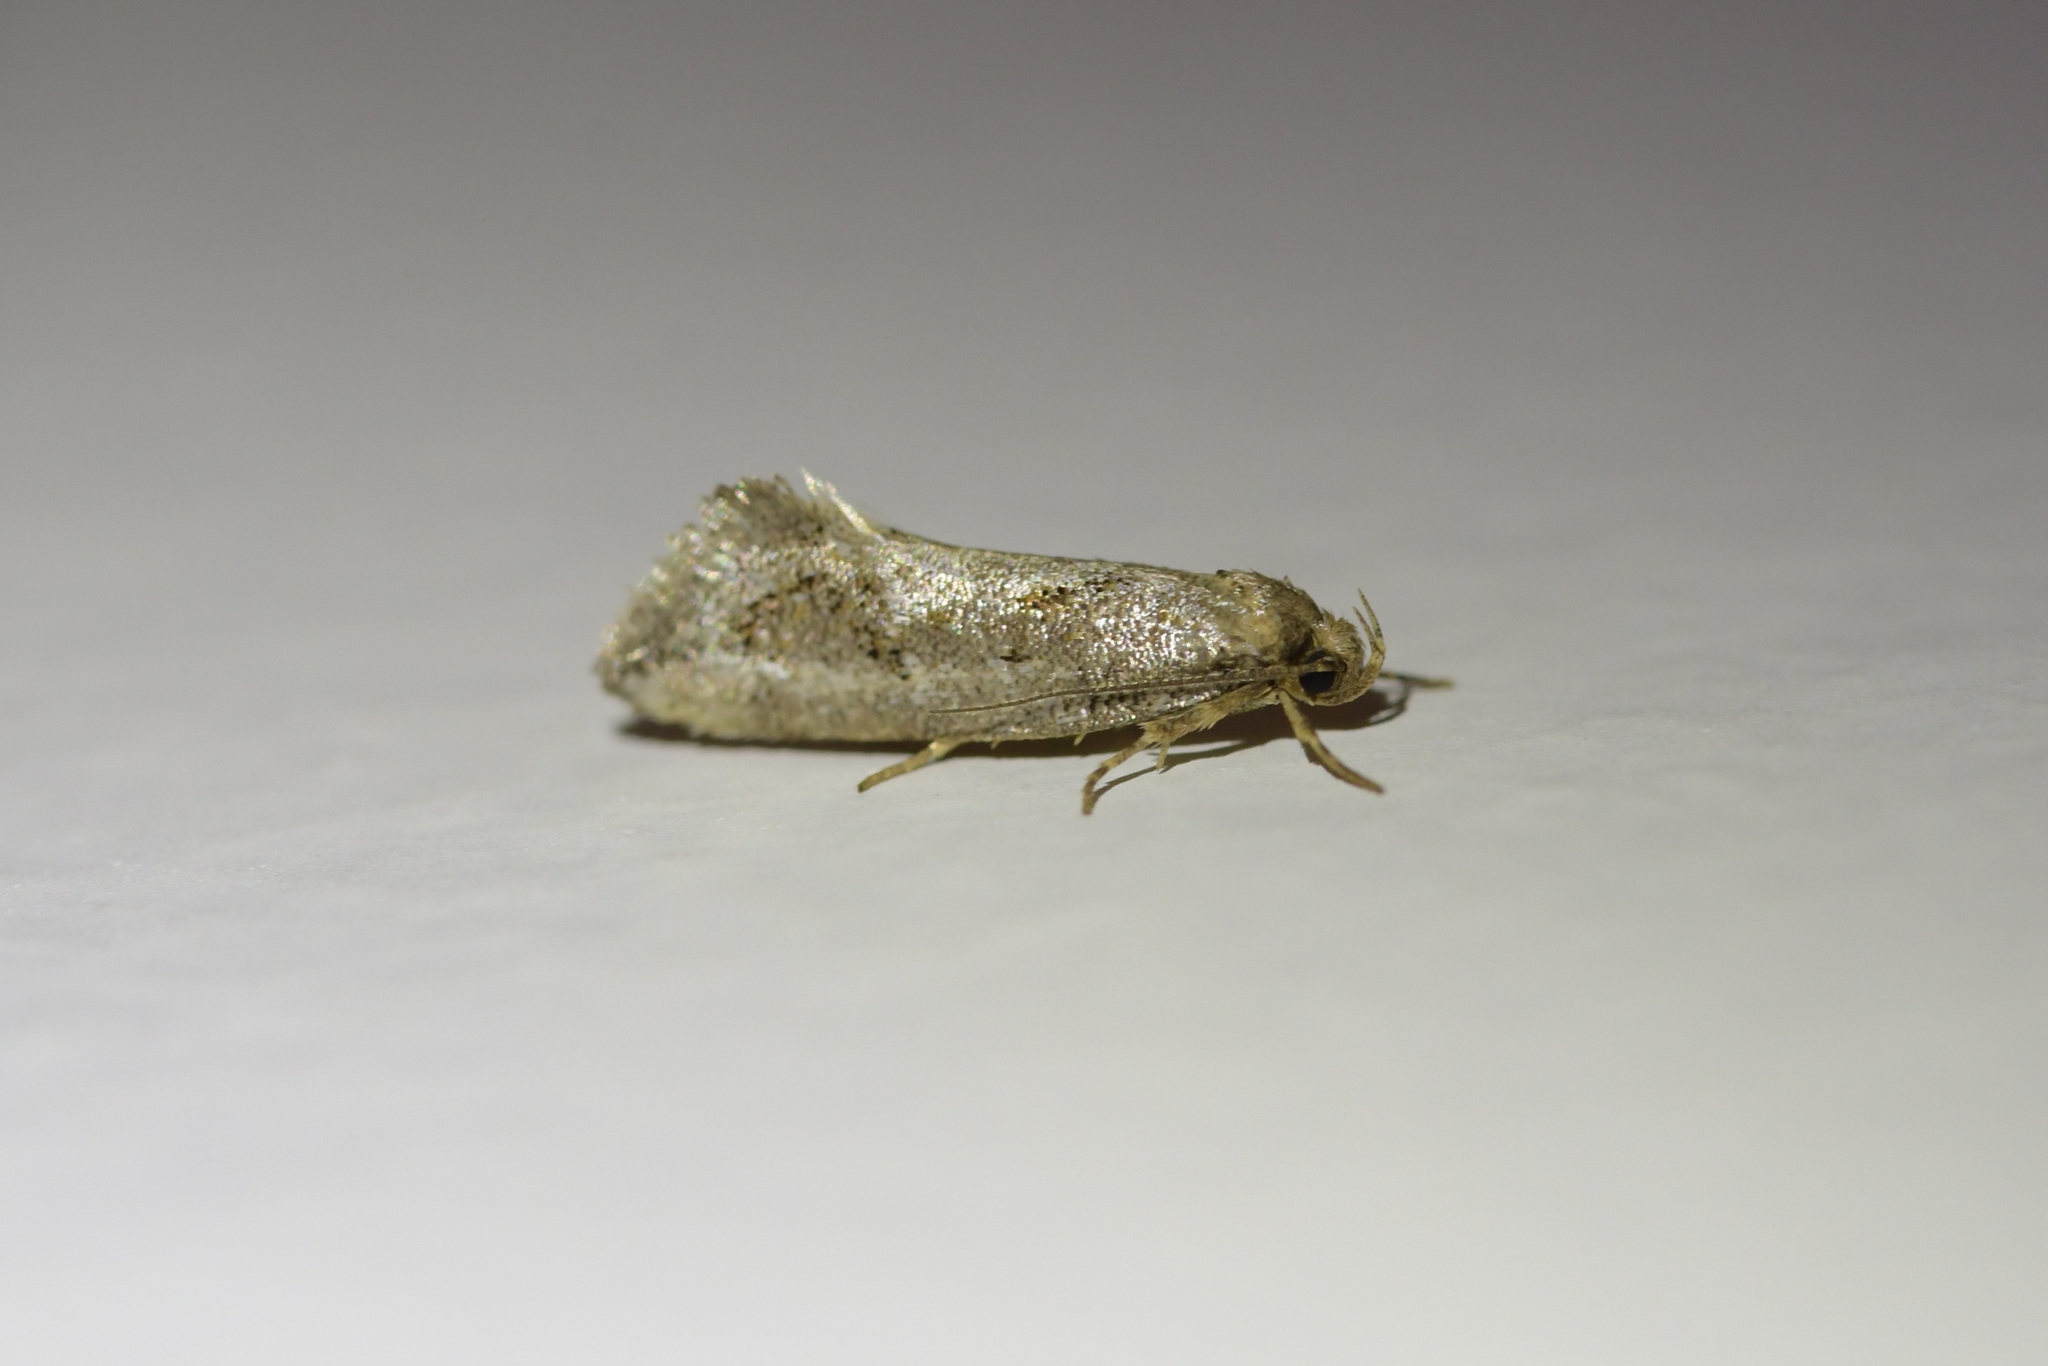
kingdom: Animalia
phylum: Arthropoda
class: Insecta
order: Lepidoptera
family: Oecophoridae
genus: Tingena
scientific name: Tingena hemimochla
